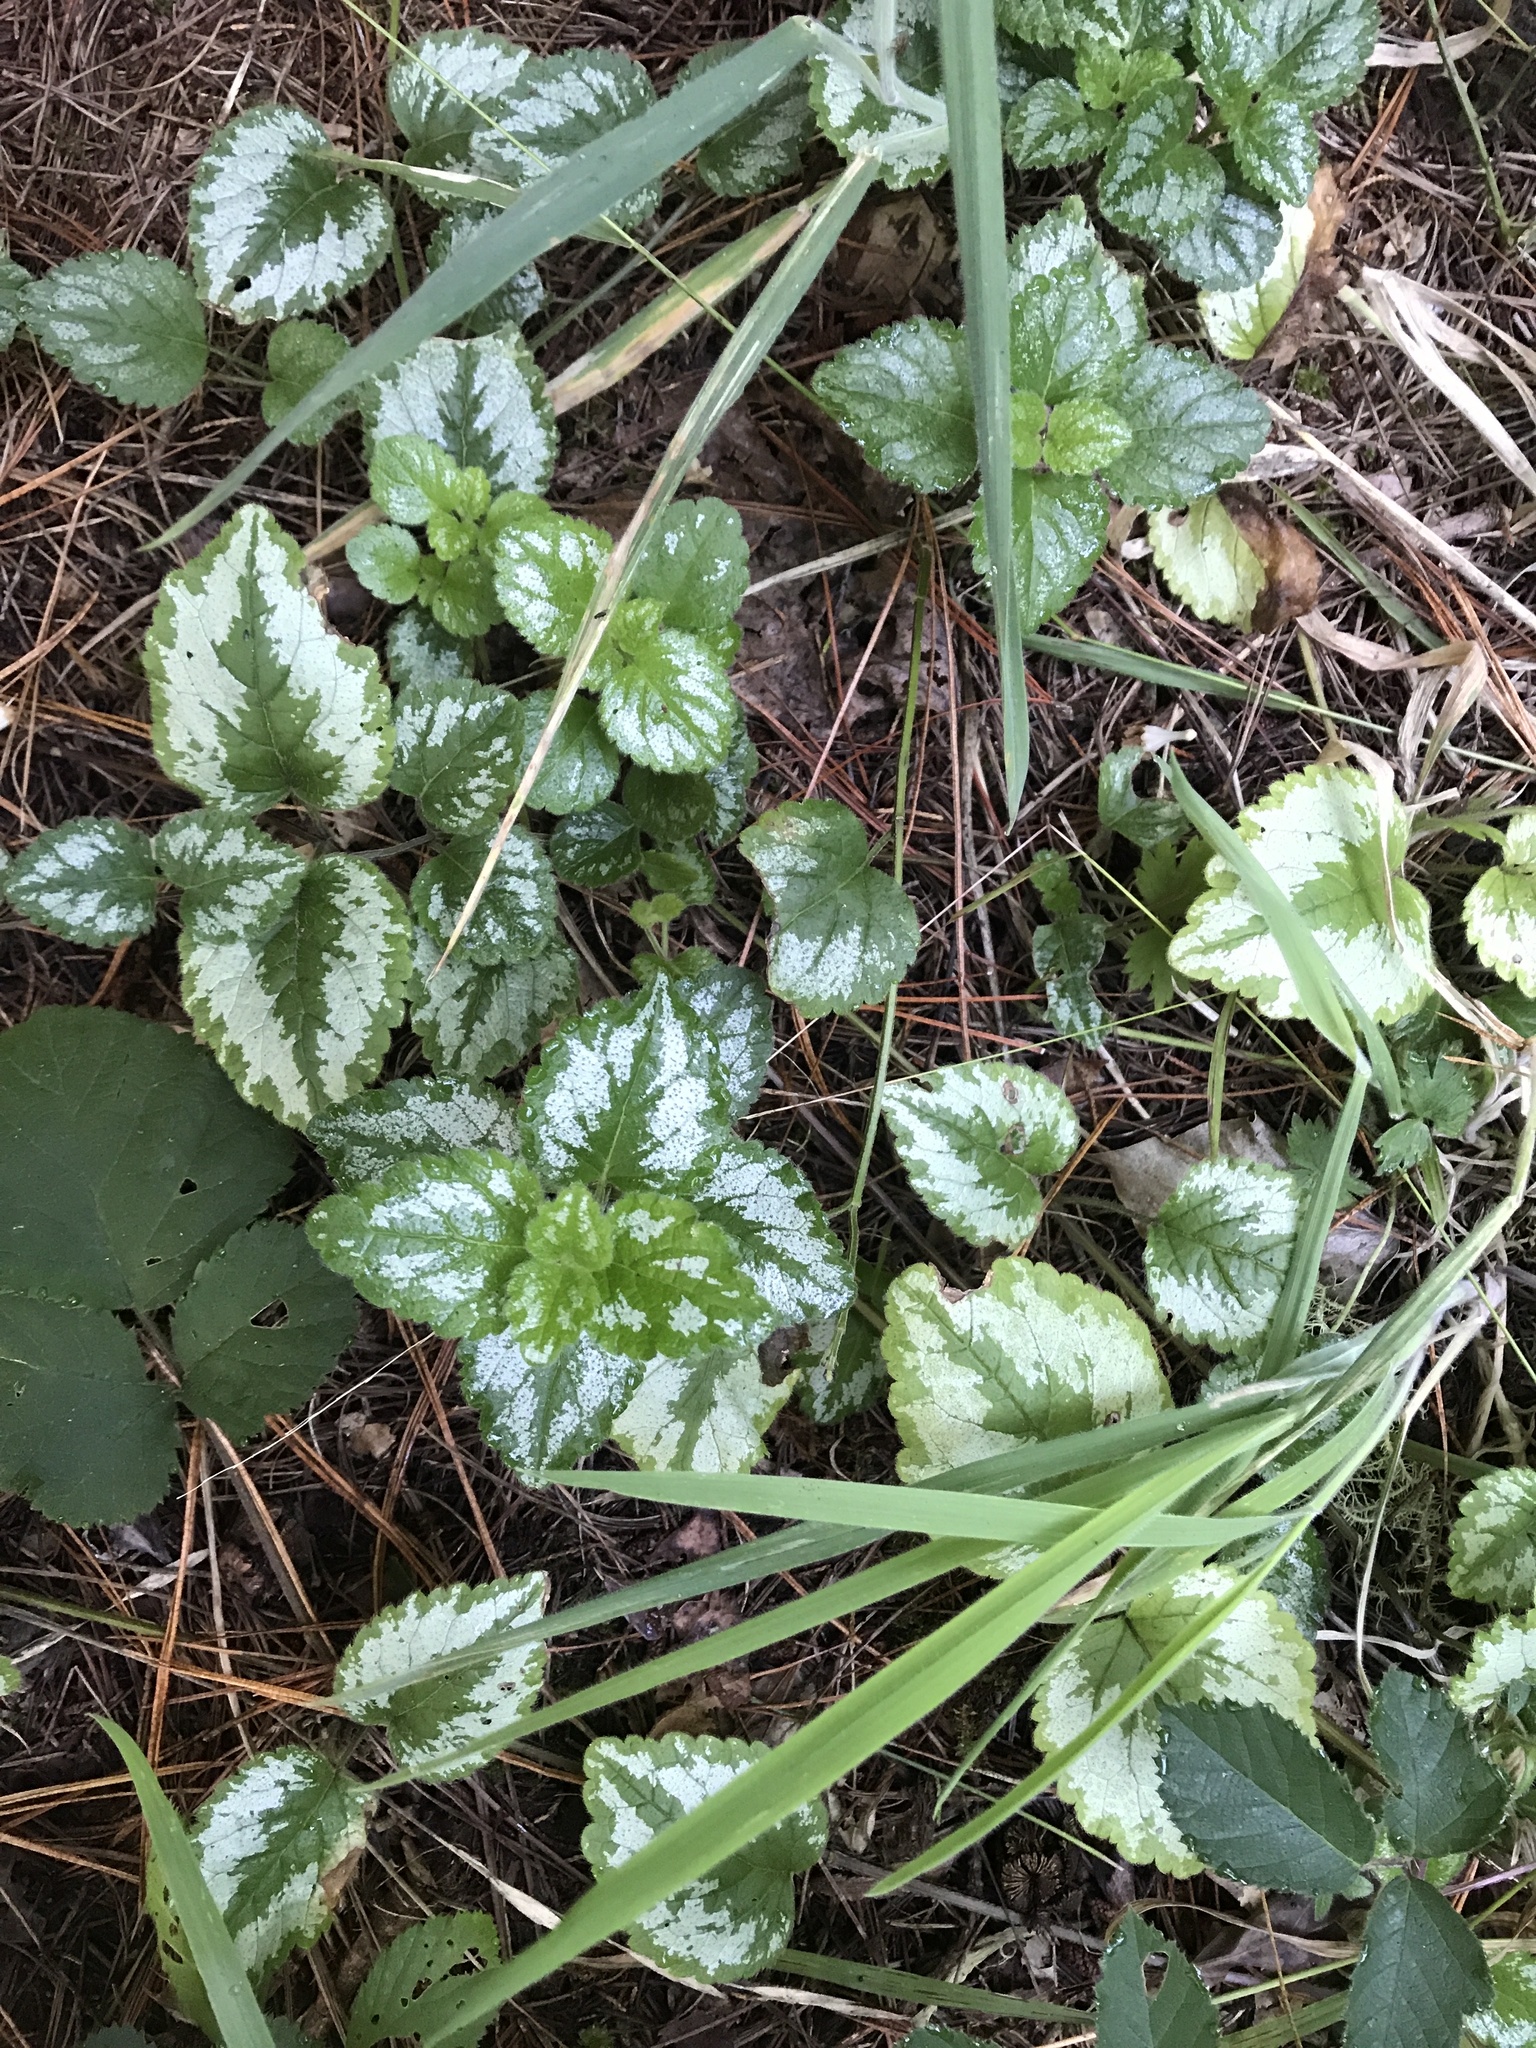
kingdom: Plantae
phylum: Tracheophyta
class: Magnoliopsida
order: Lamiales
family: Lamiaceae
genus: Lamium
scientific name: Lamium galeobdolon
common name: Yellow archangel
